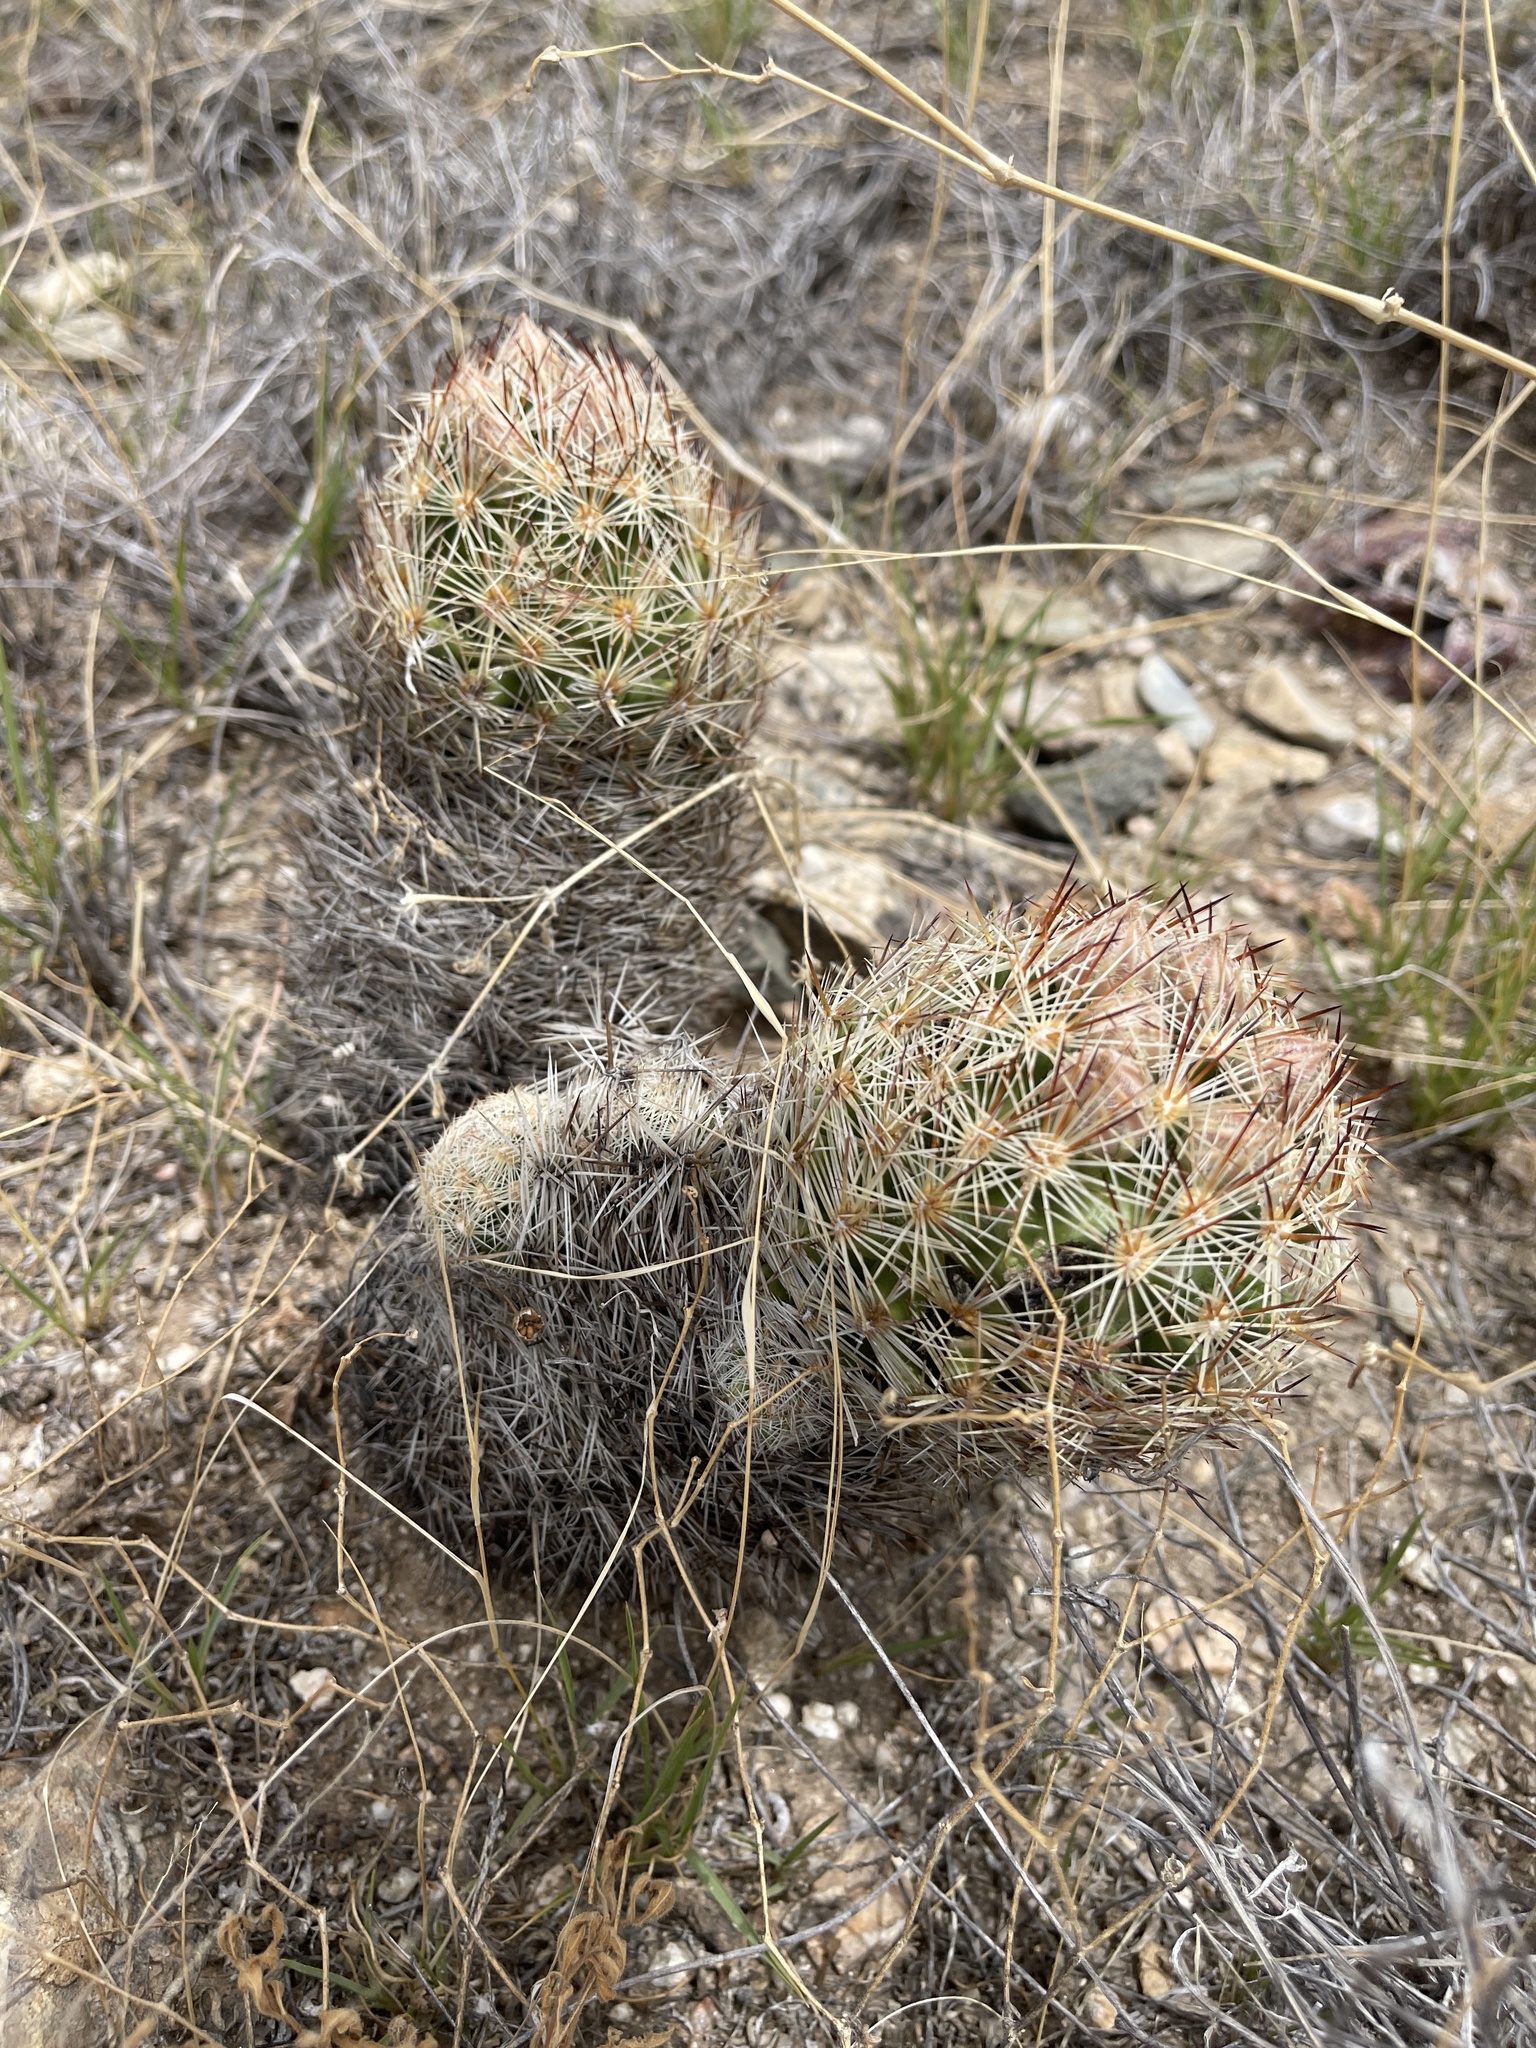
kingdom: Plantae
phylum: Tracheophyta
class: Magnoliopsida
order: Caryophyllales
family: Cactaceae
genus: Pelecyphora
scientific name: Pelecyphora vivipara
